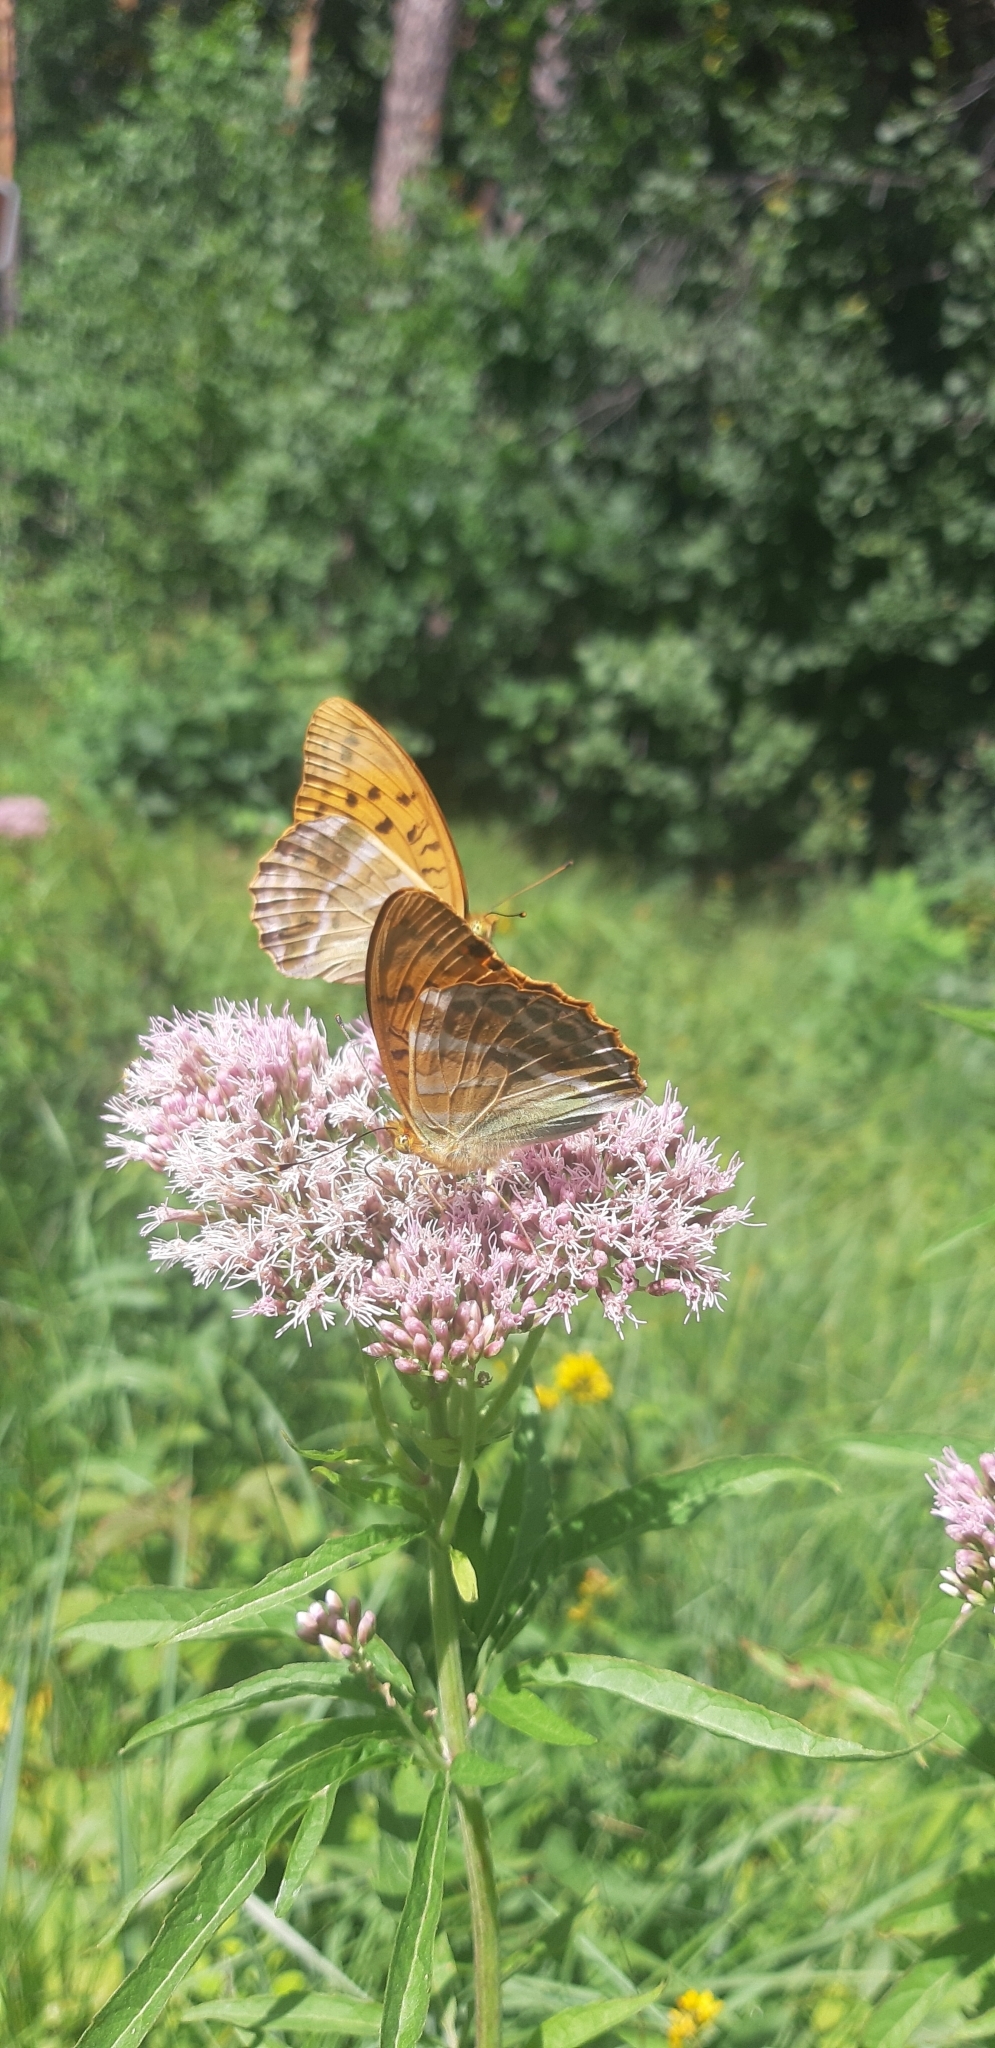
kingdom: Animalia
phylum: Arthropoda
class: Insecta
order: Lepidoptera
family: Nymphalidae
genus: Argynnis
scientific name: Argynnis paphia
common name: Silver-washed fritillary
